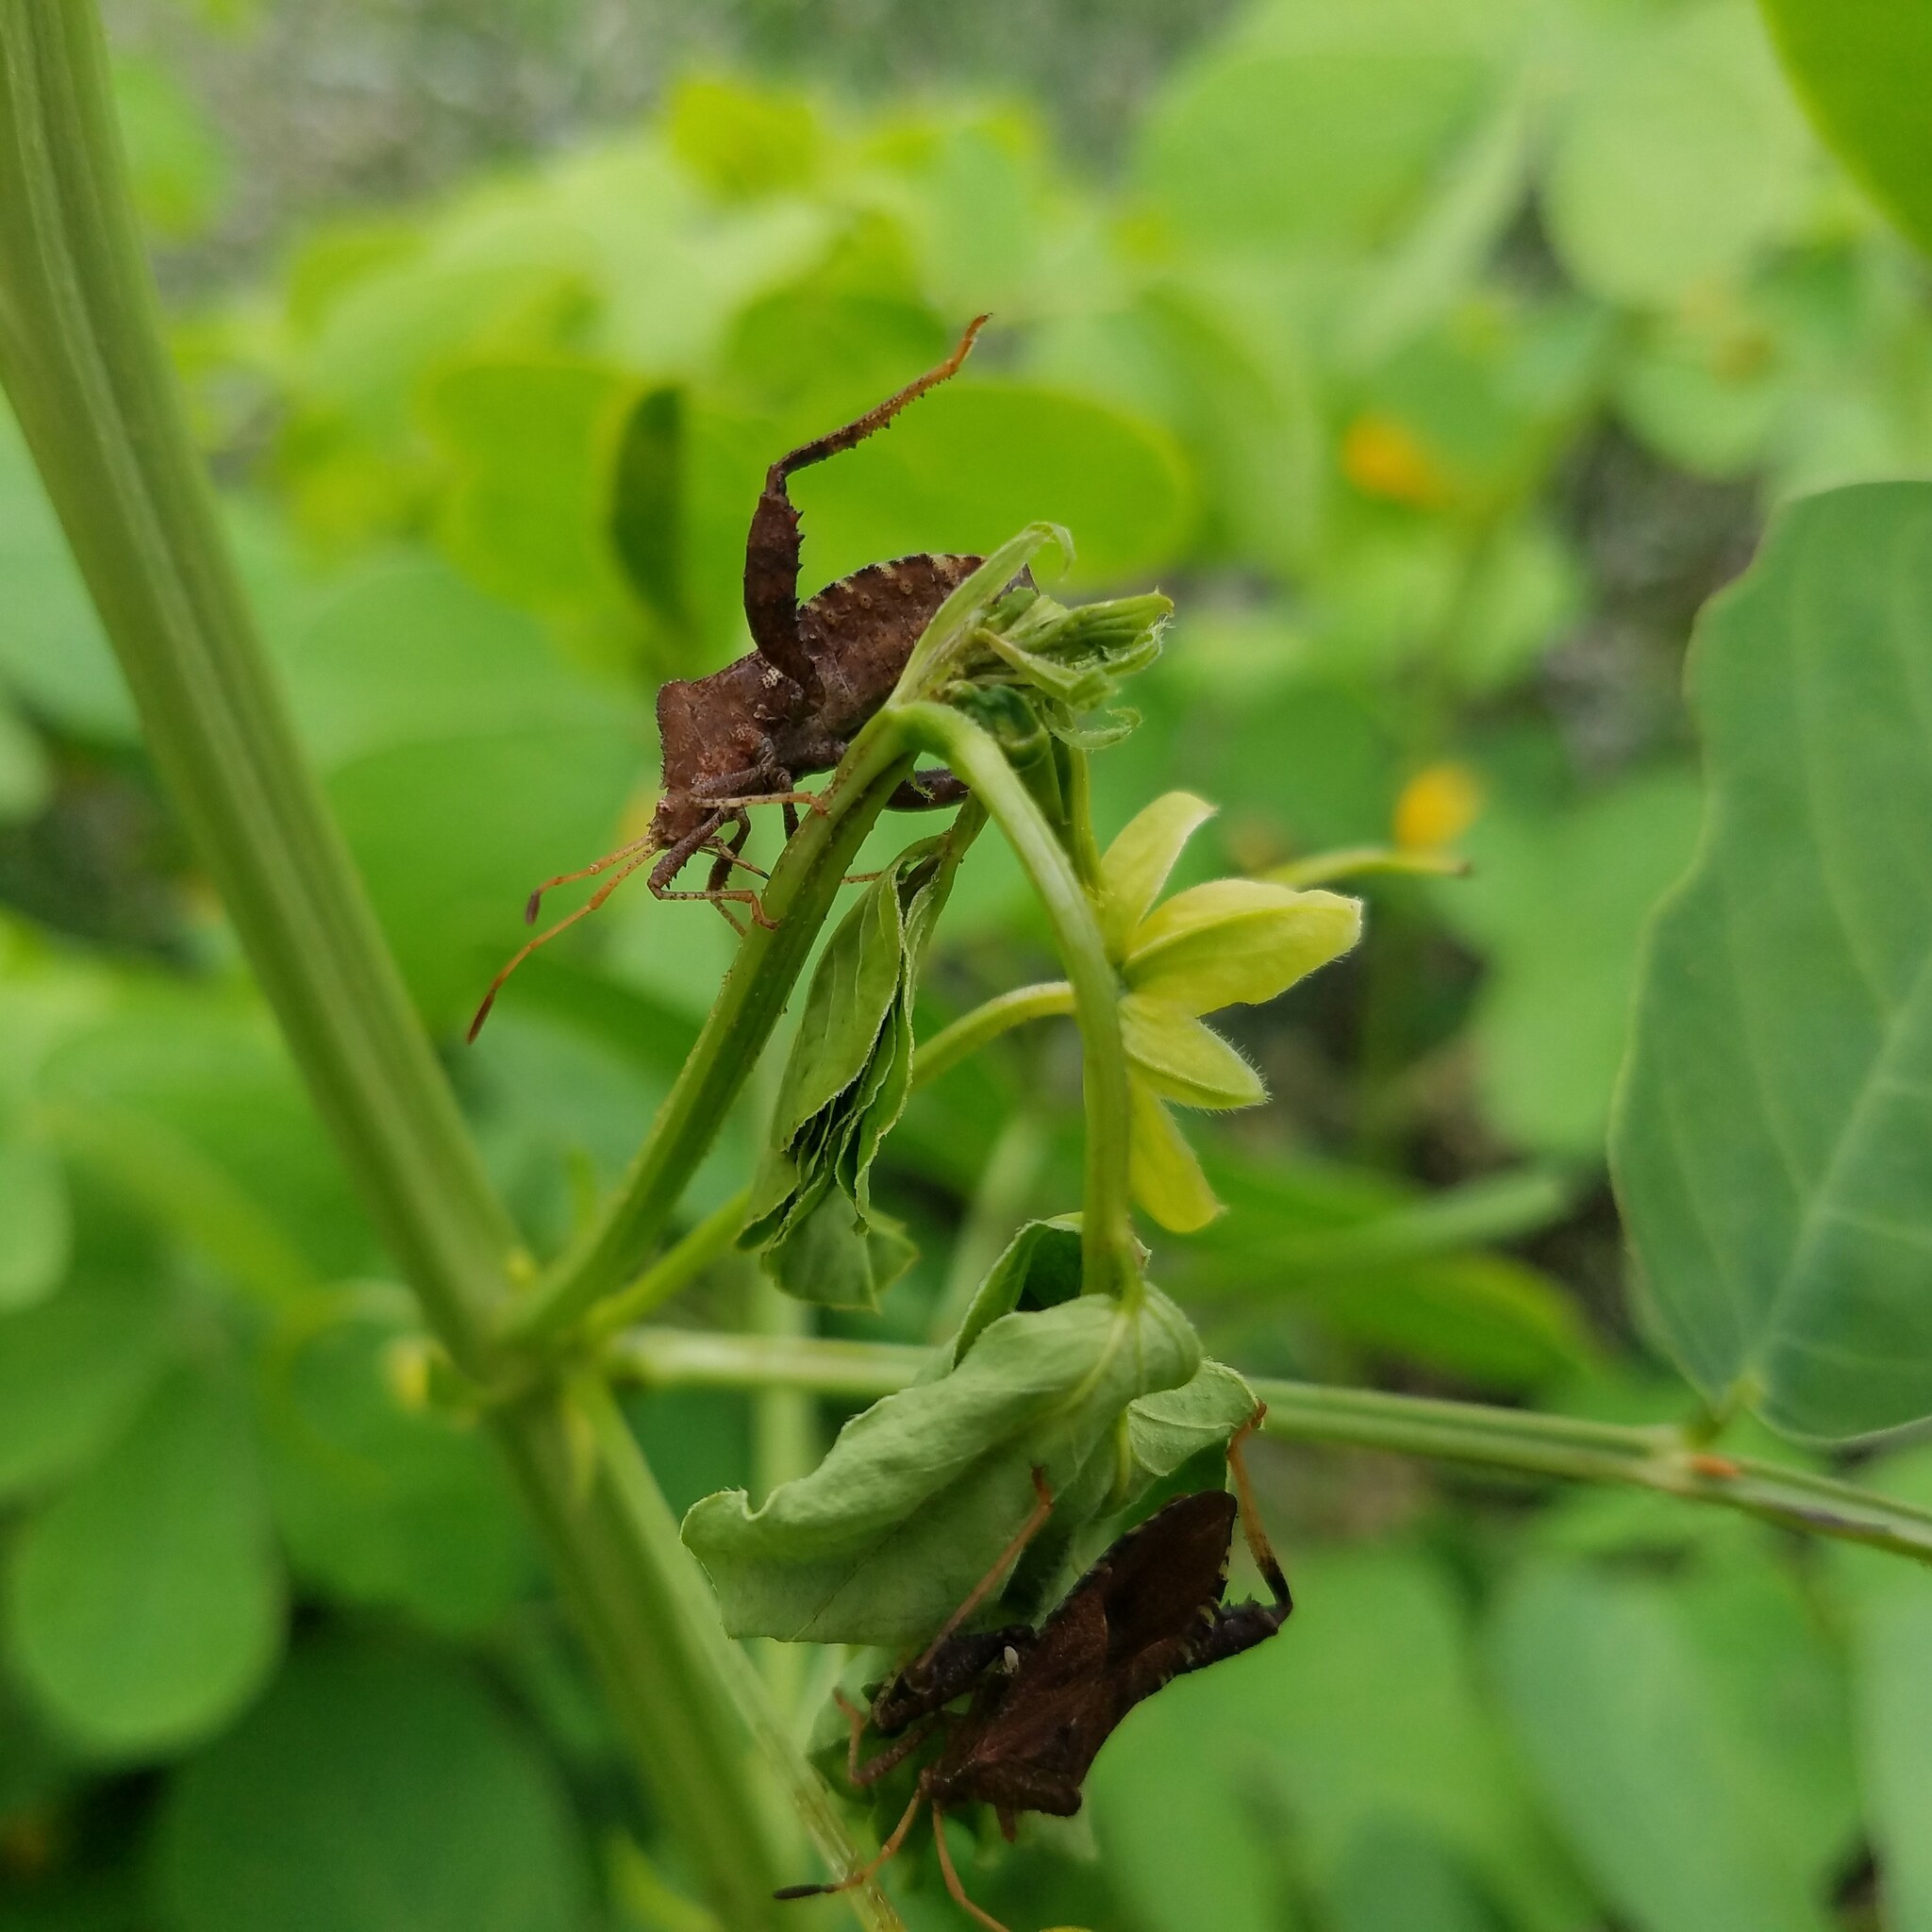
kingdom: Animalia
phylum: Arthropoda
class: Insecta
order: Hemiptera
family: Coreidae
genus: Euthochtha
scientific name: Euthochtha galeator
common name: Helmeted squash bug
